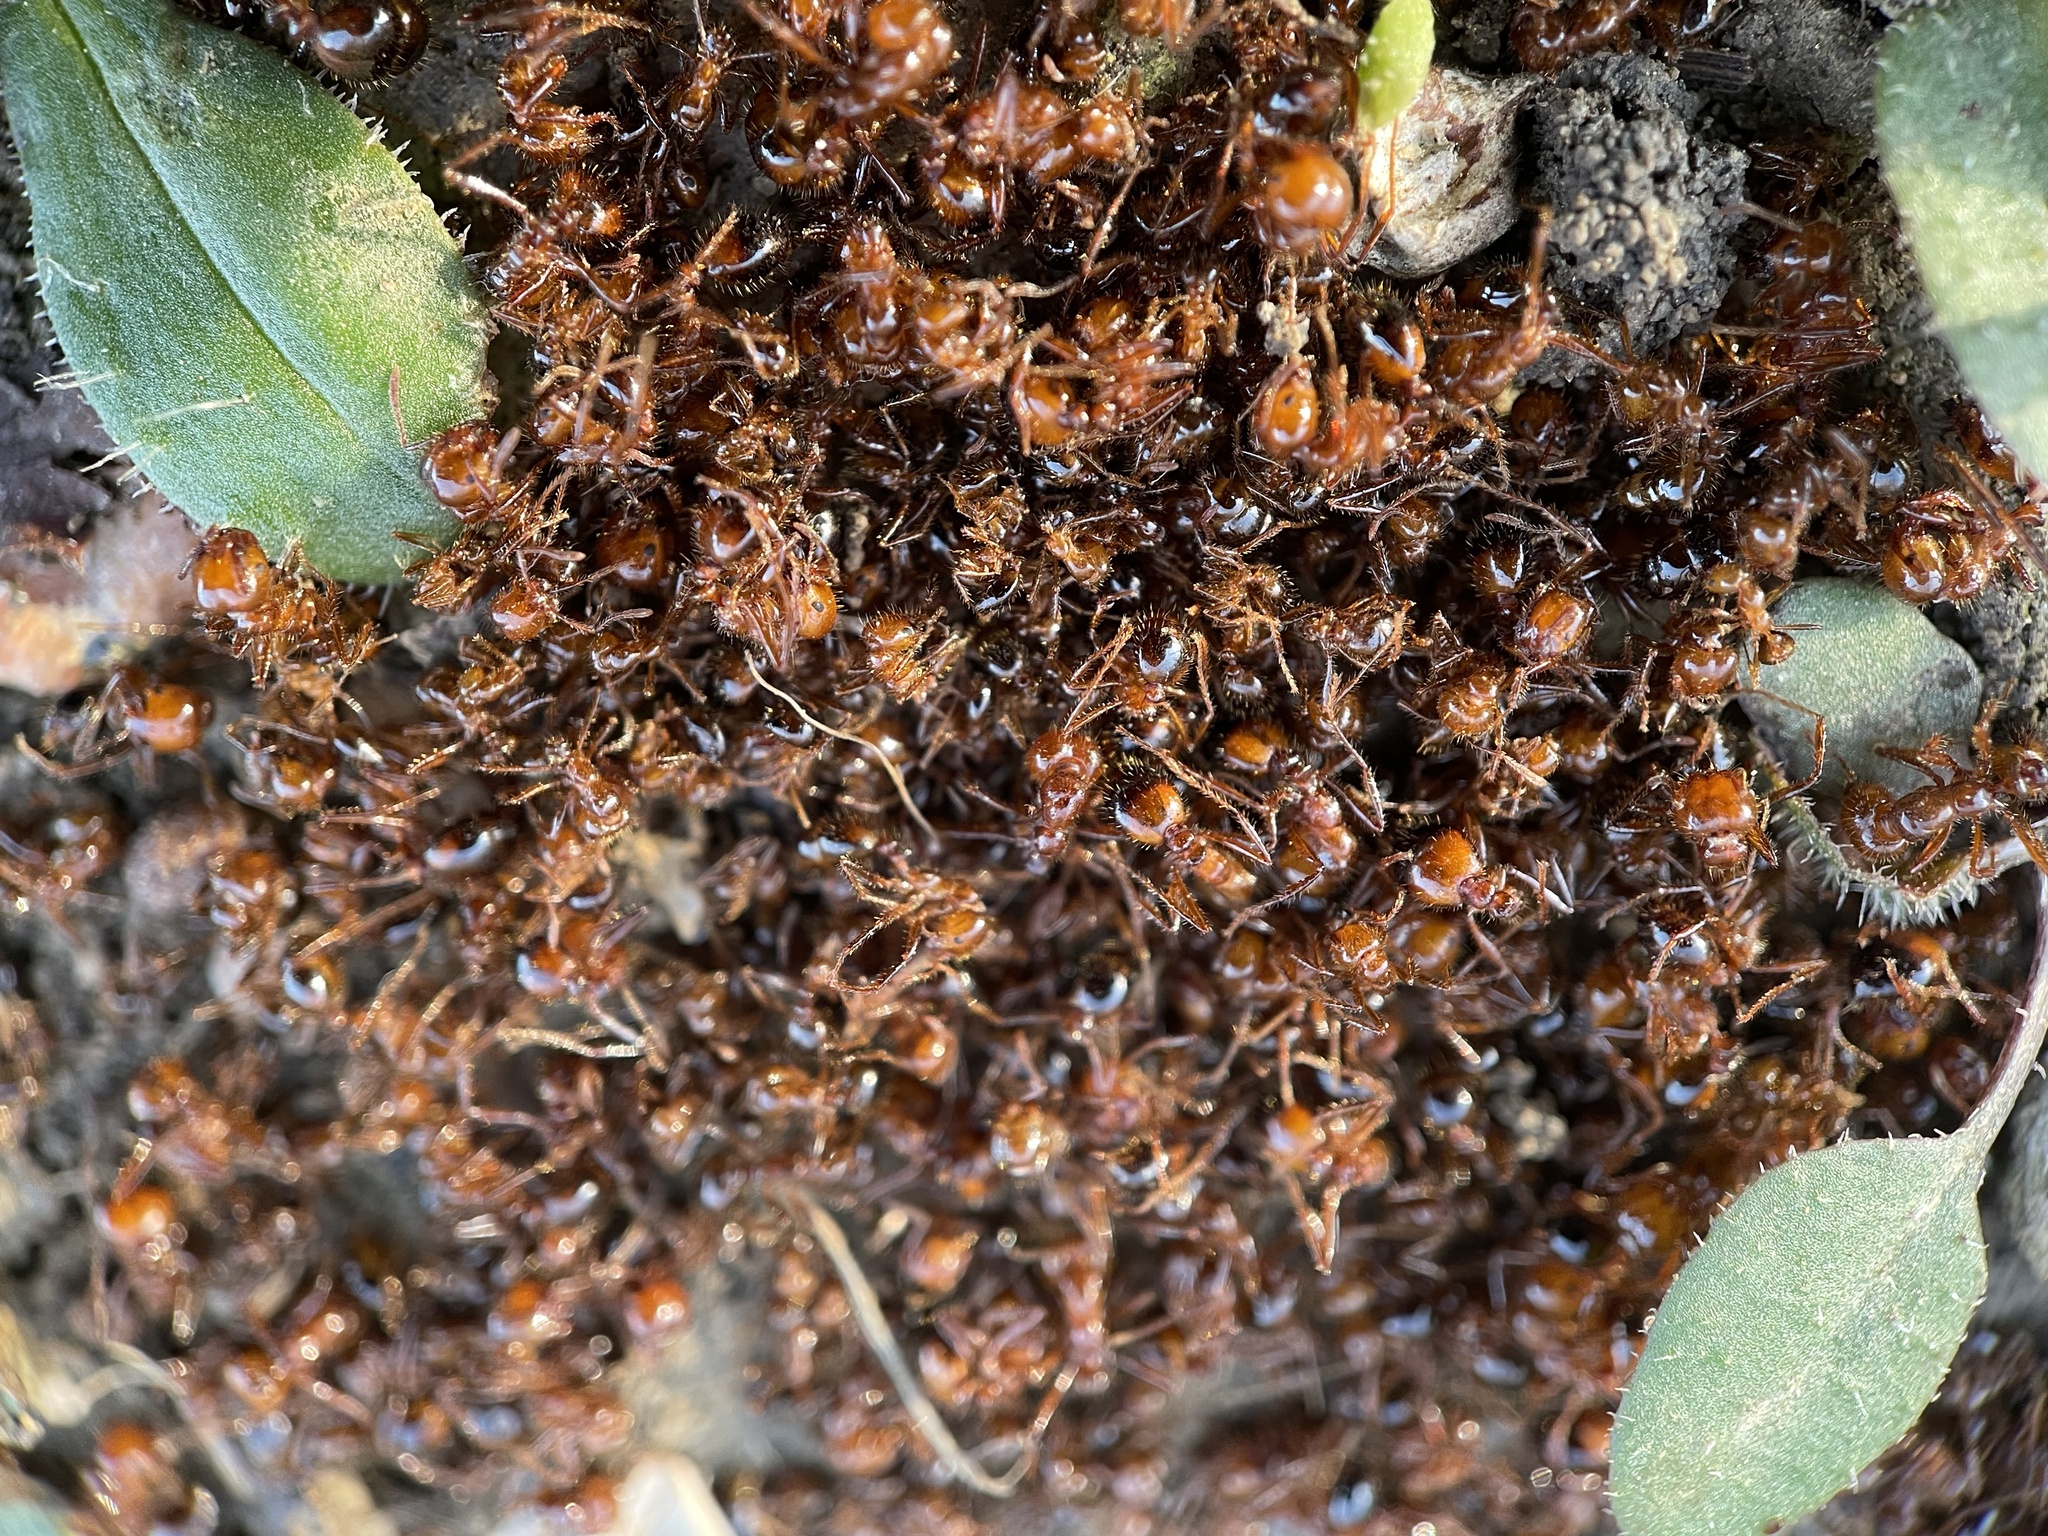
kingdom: Animalia
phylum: Arthropoda
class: Insecta
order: Hymenoptera
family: Formicidae
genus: Solenopsis
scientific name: Solenopsis invicta
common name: Red imported fire ant
